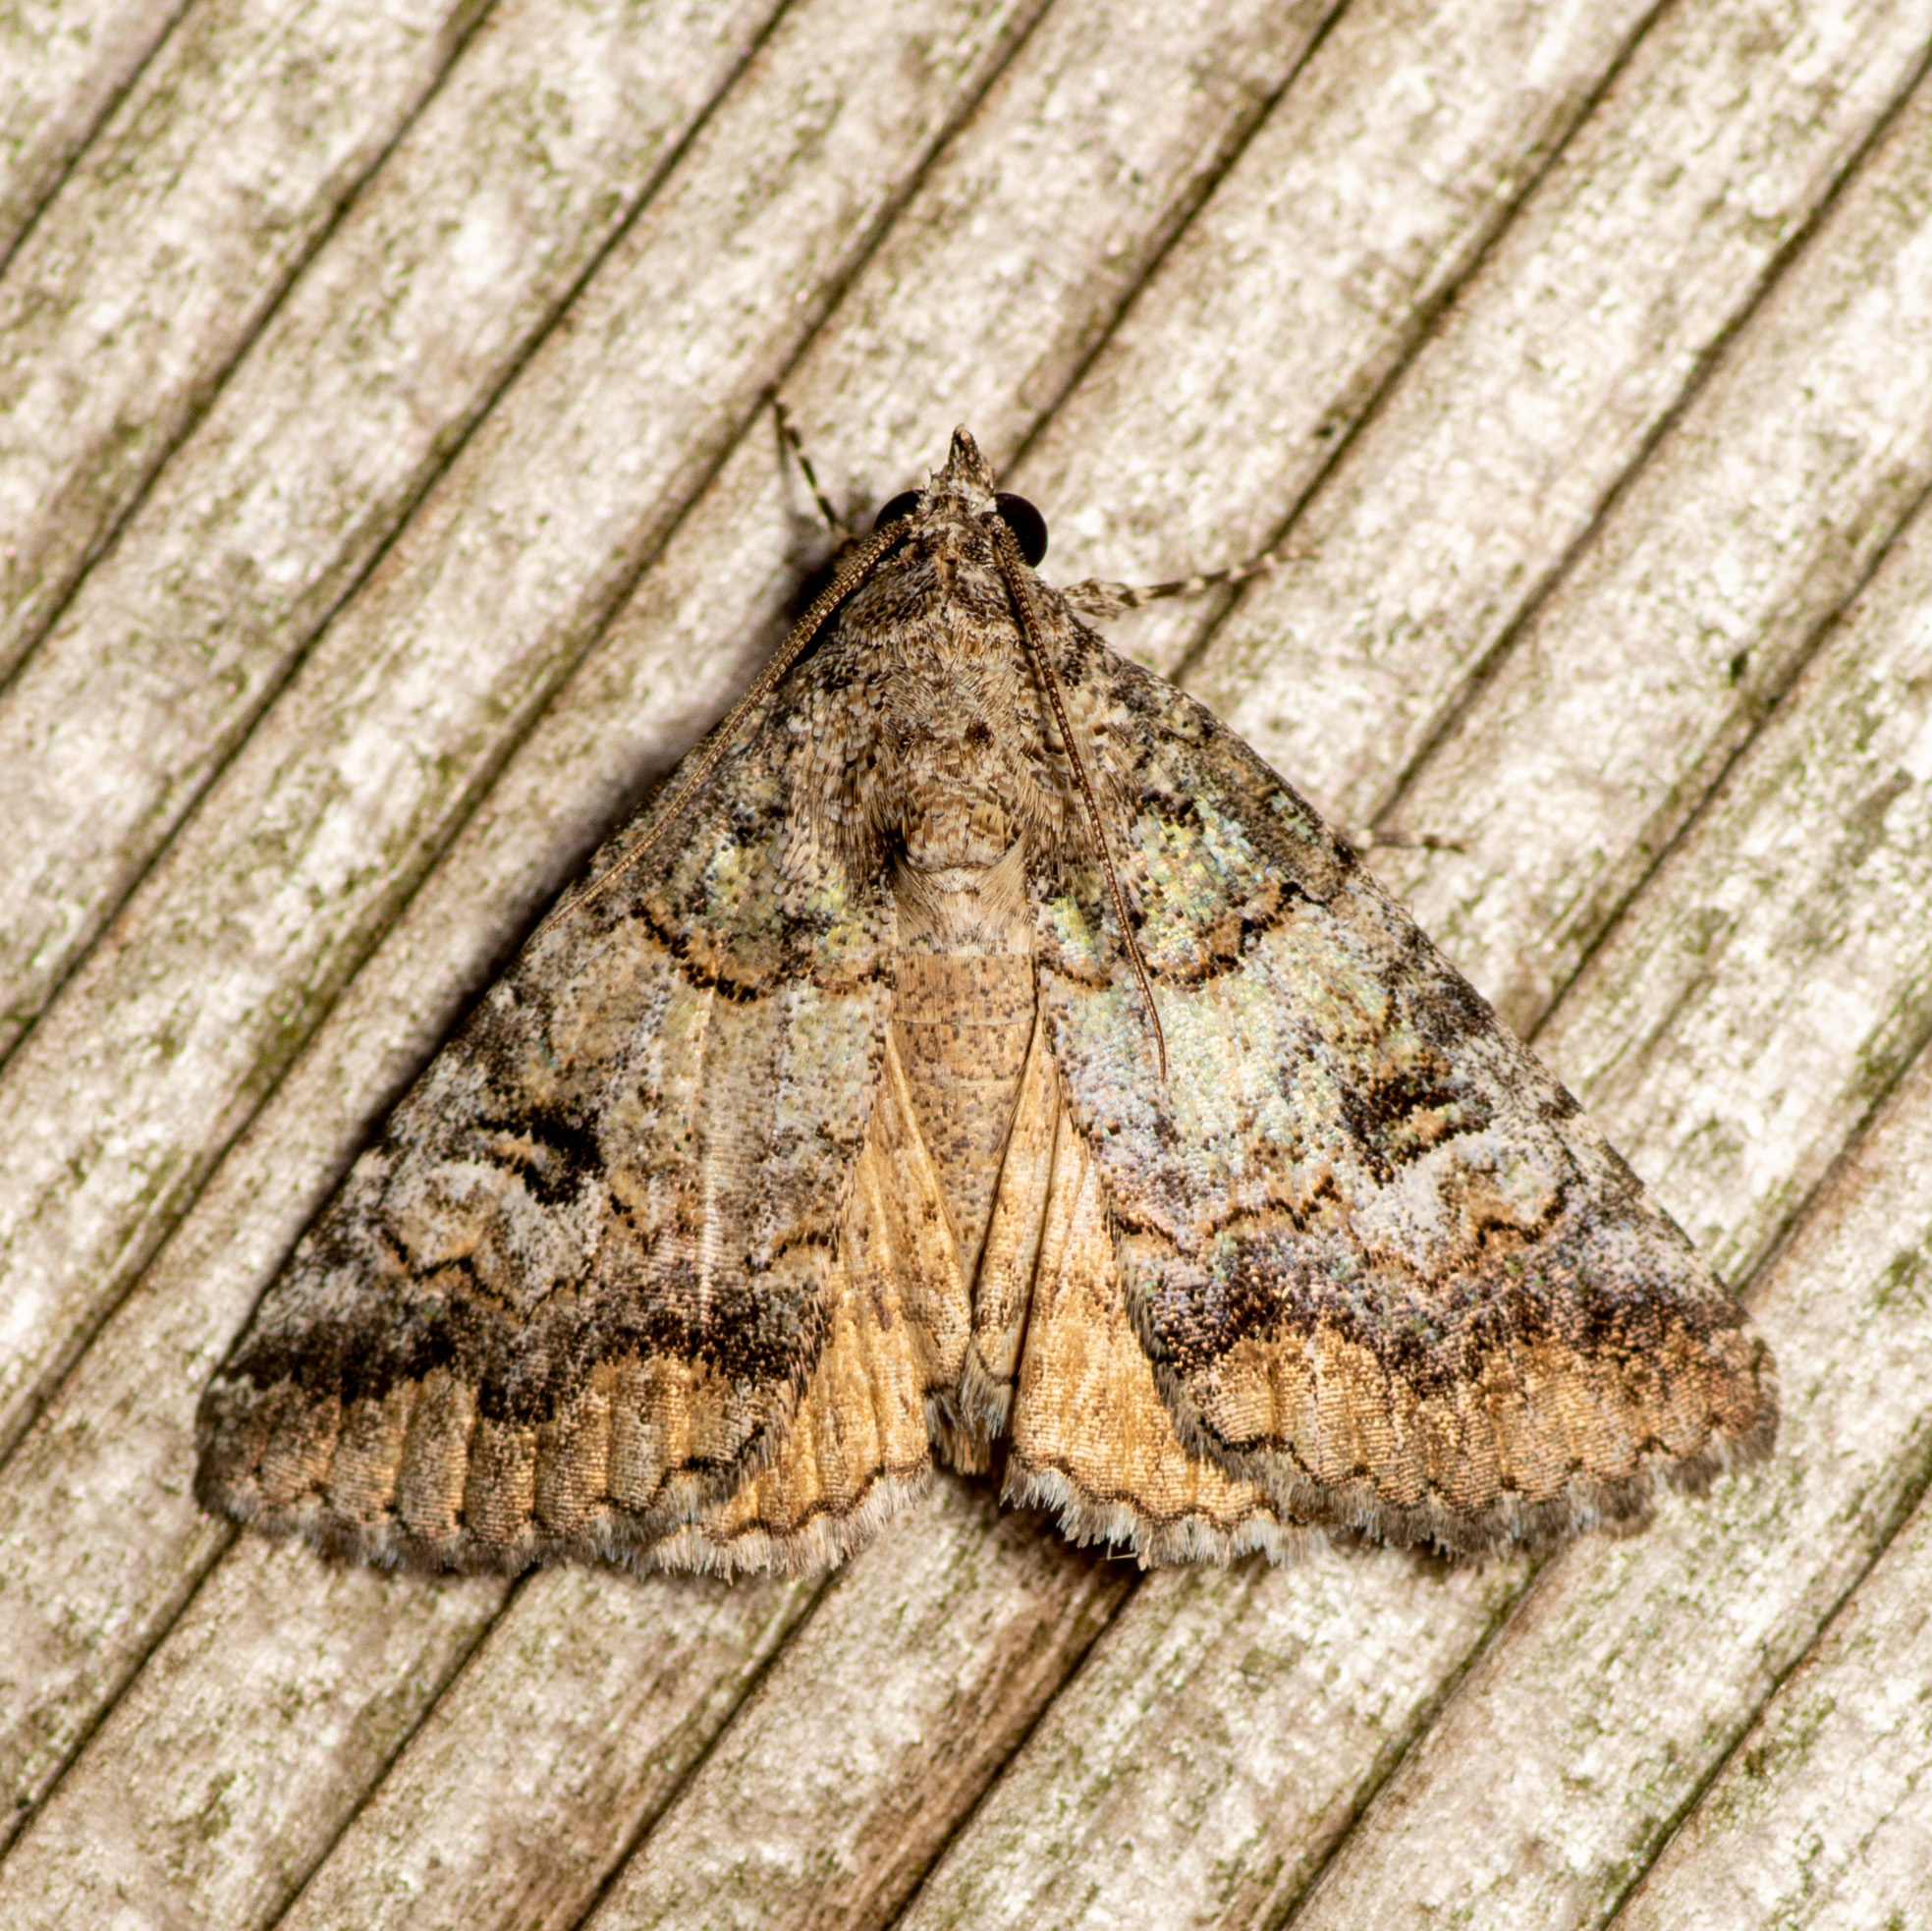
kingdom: Animalia
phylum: Arthropoda
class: Insecta
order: Lepidoptera
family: Erebidae
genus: Eubolina
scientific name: Eubolina impartialis
